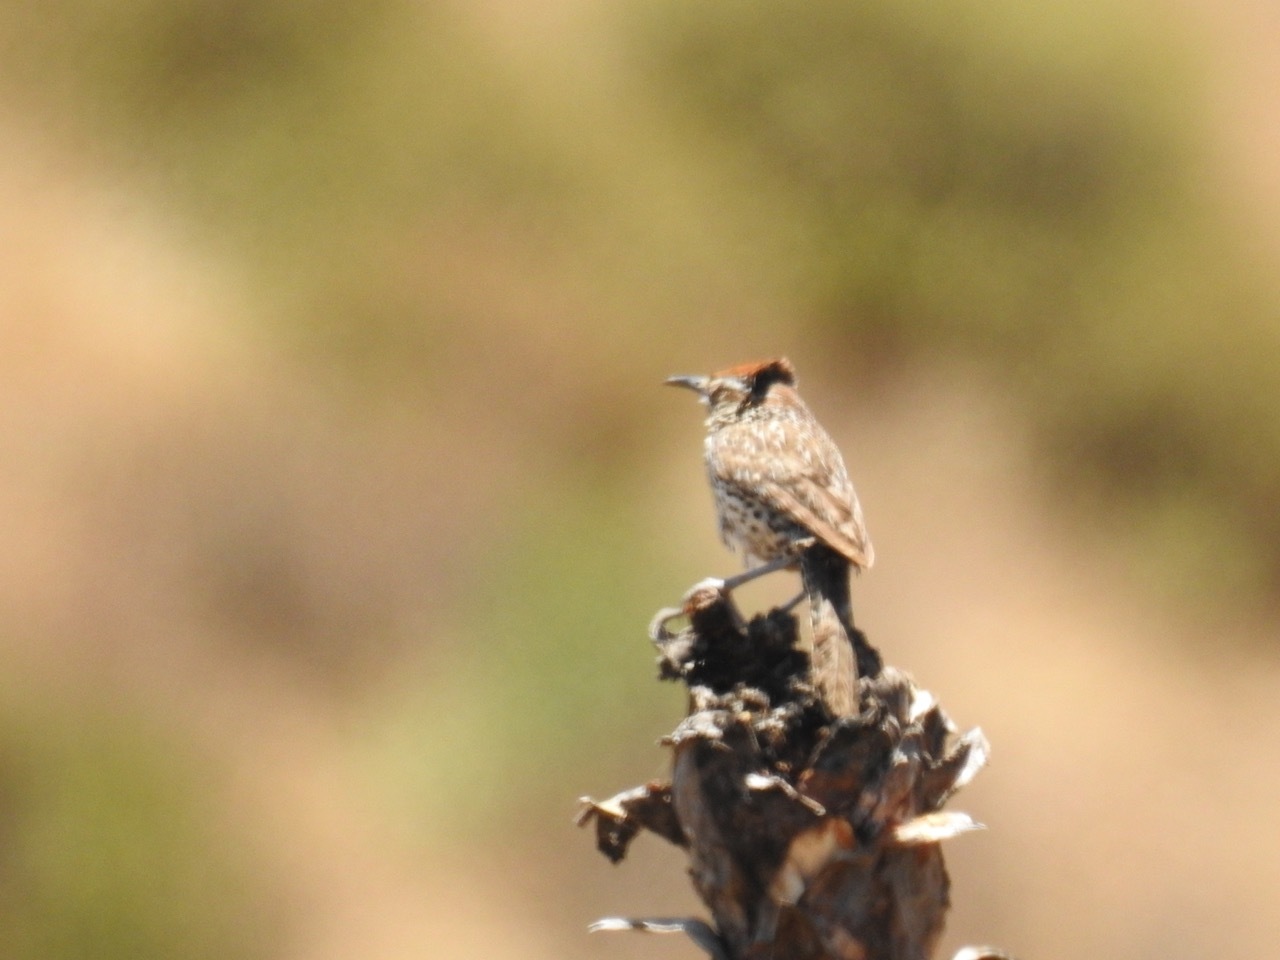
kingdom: Animalia
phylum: Chordata
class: Aves
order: Passeriformes
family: Troglodytidae
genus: Campylorhynchus
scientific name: Campylorhynchus brunneicapillus
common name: Cactus wren
